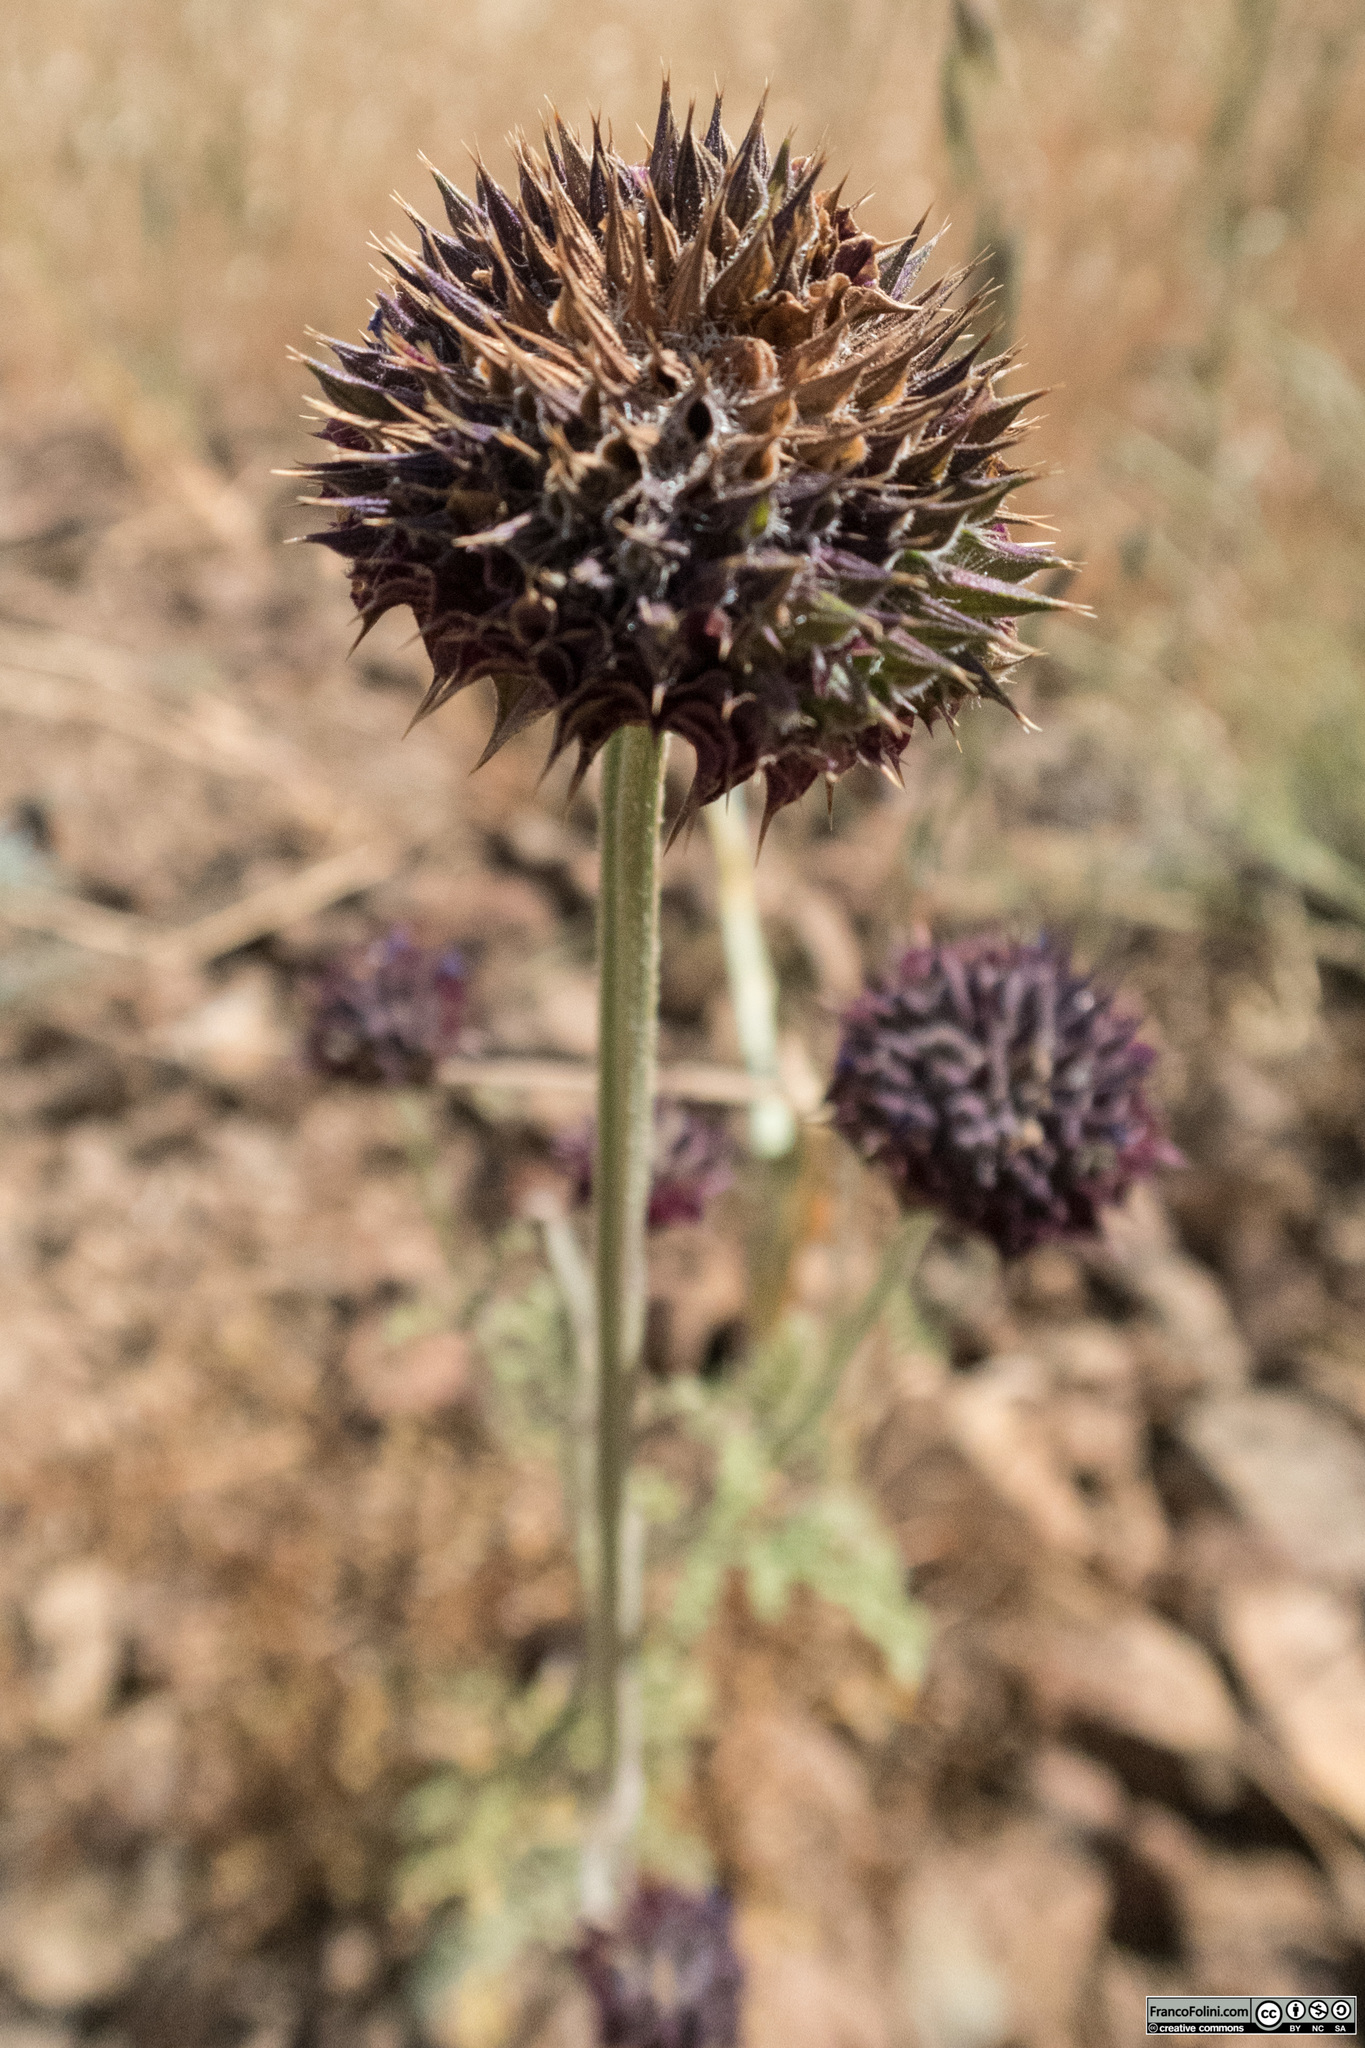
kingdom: Plantae
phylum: Tracheophyta
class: Magnoliopsida
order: Lamiales
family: Lamiaceae
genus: Salvia
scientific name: Salvia columbariae
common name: Chia
